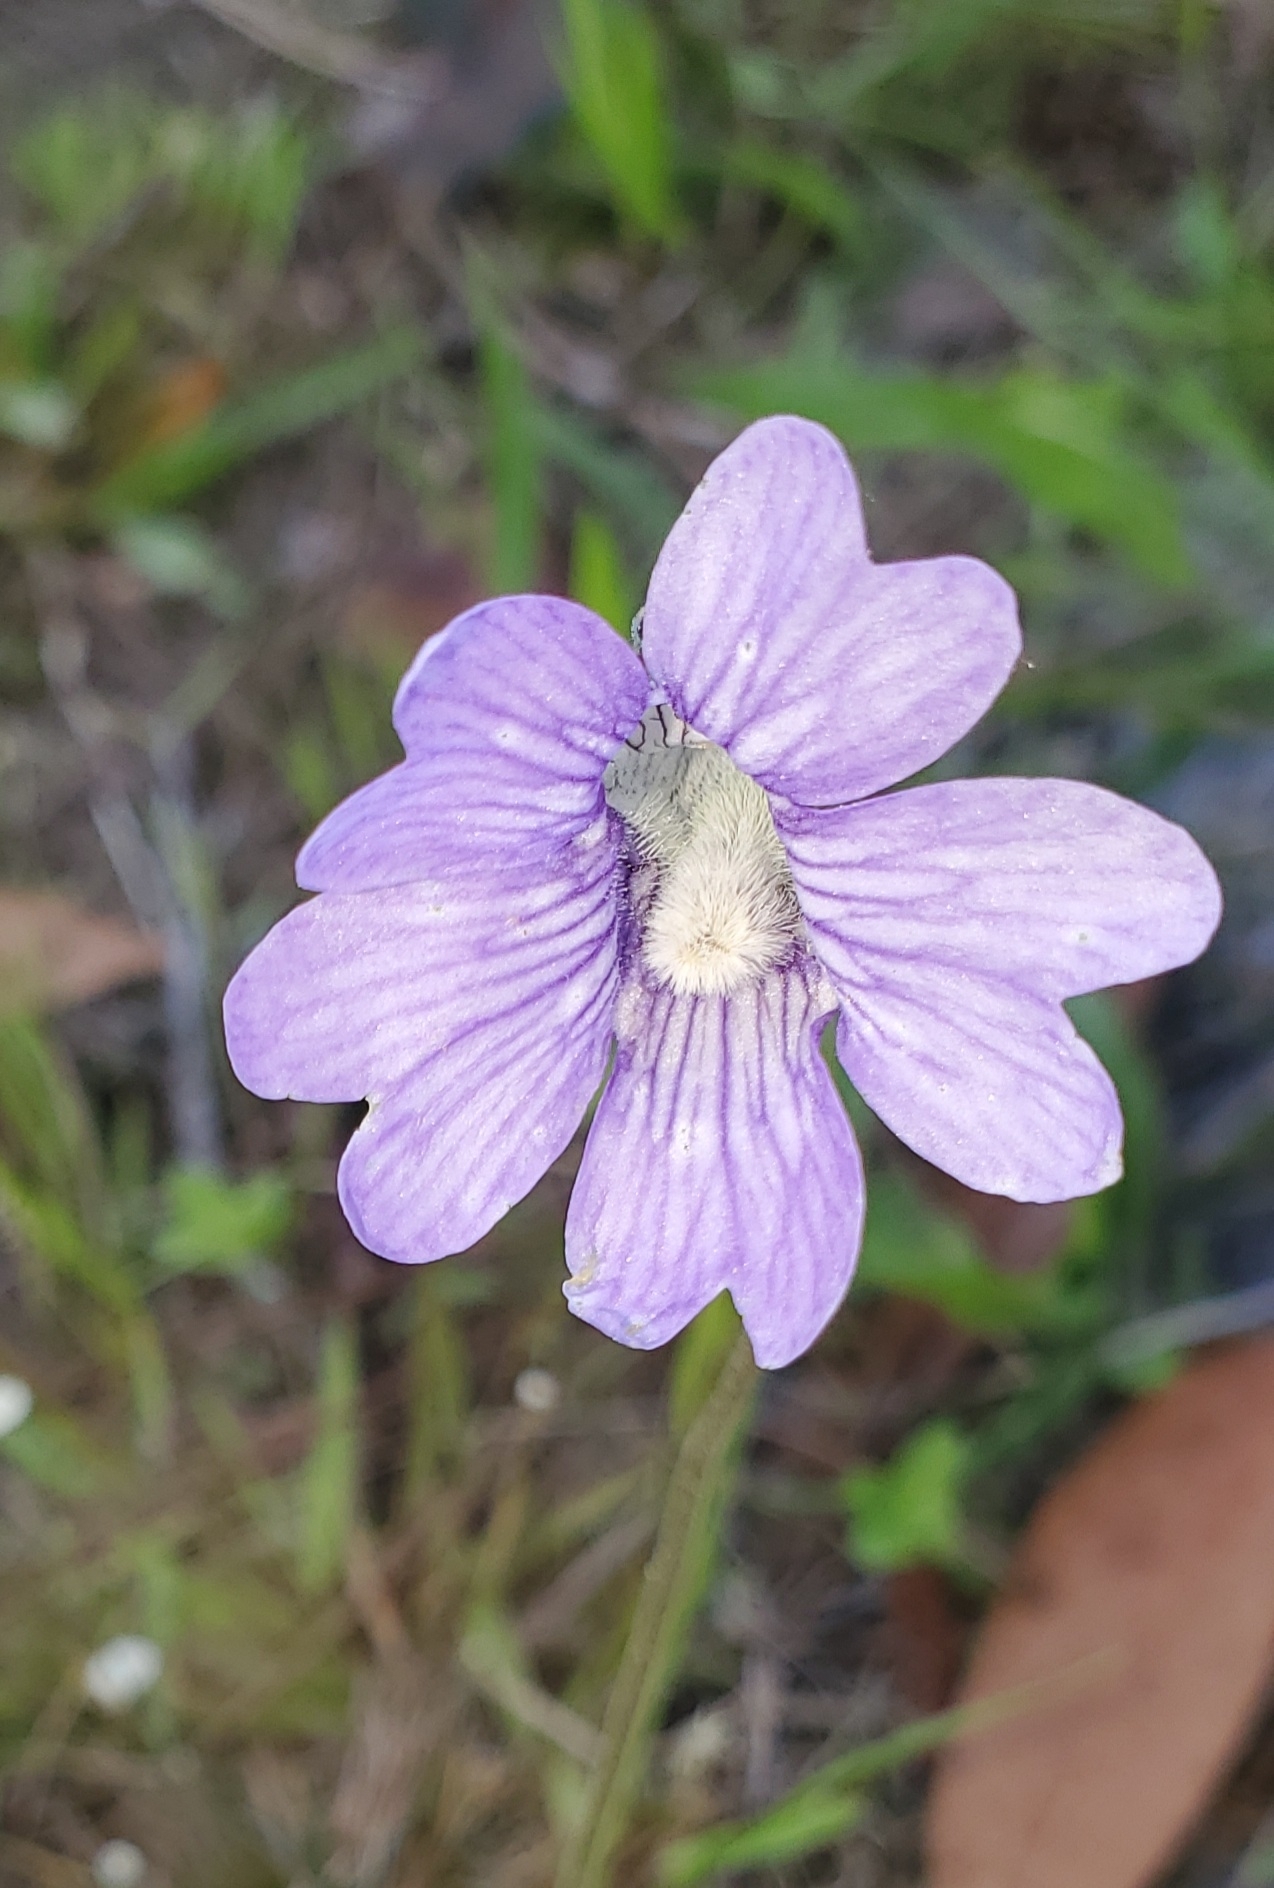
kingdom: Plantae
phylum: Tracheophyta
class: Magnoliopsida
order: Lamiales
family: Lentibulariaceae
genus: Pinguicula
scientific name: Pinguicula caerulea
